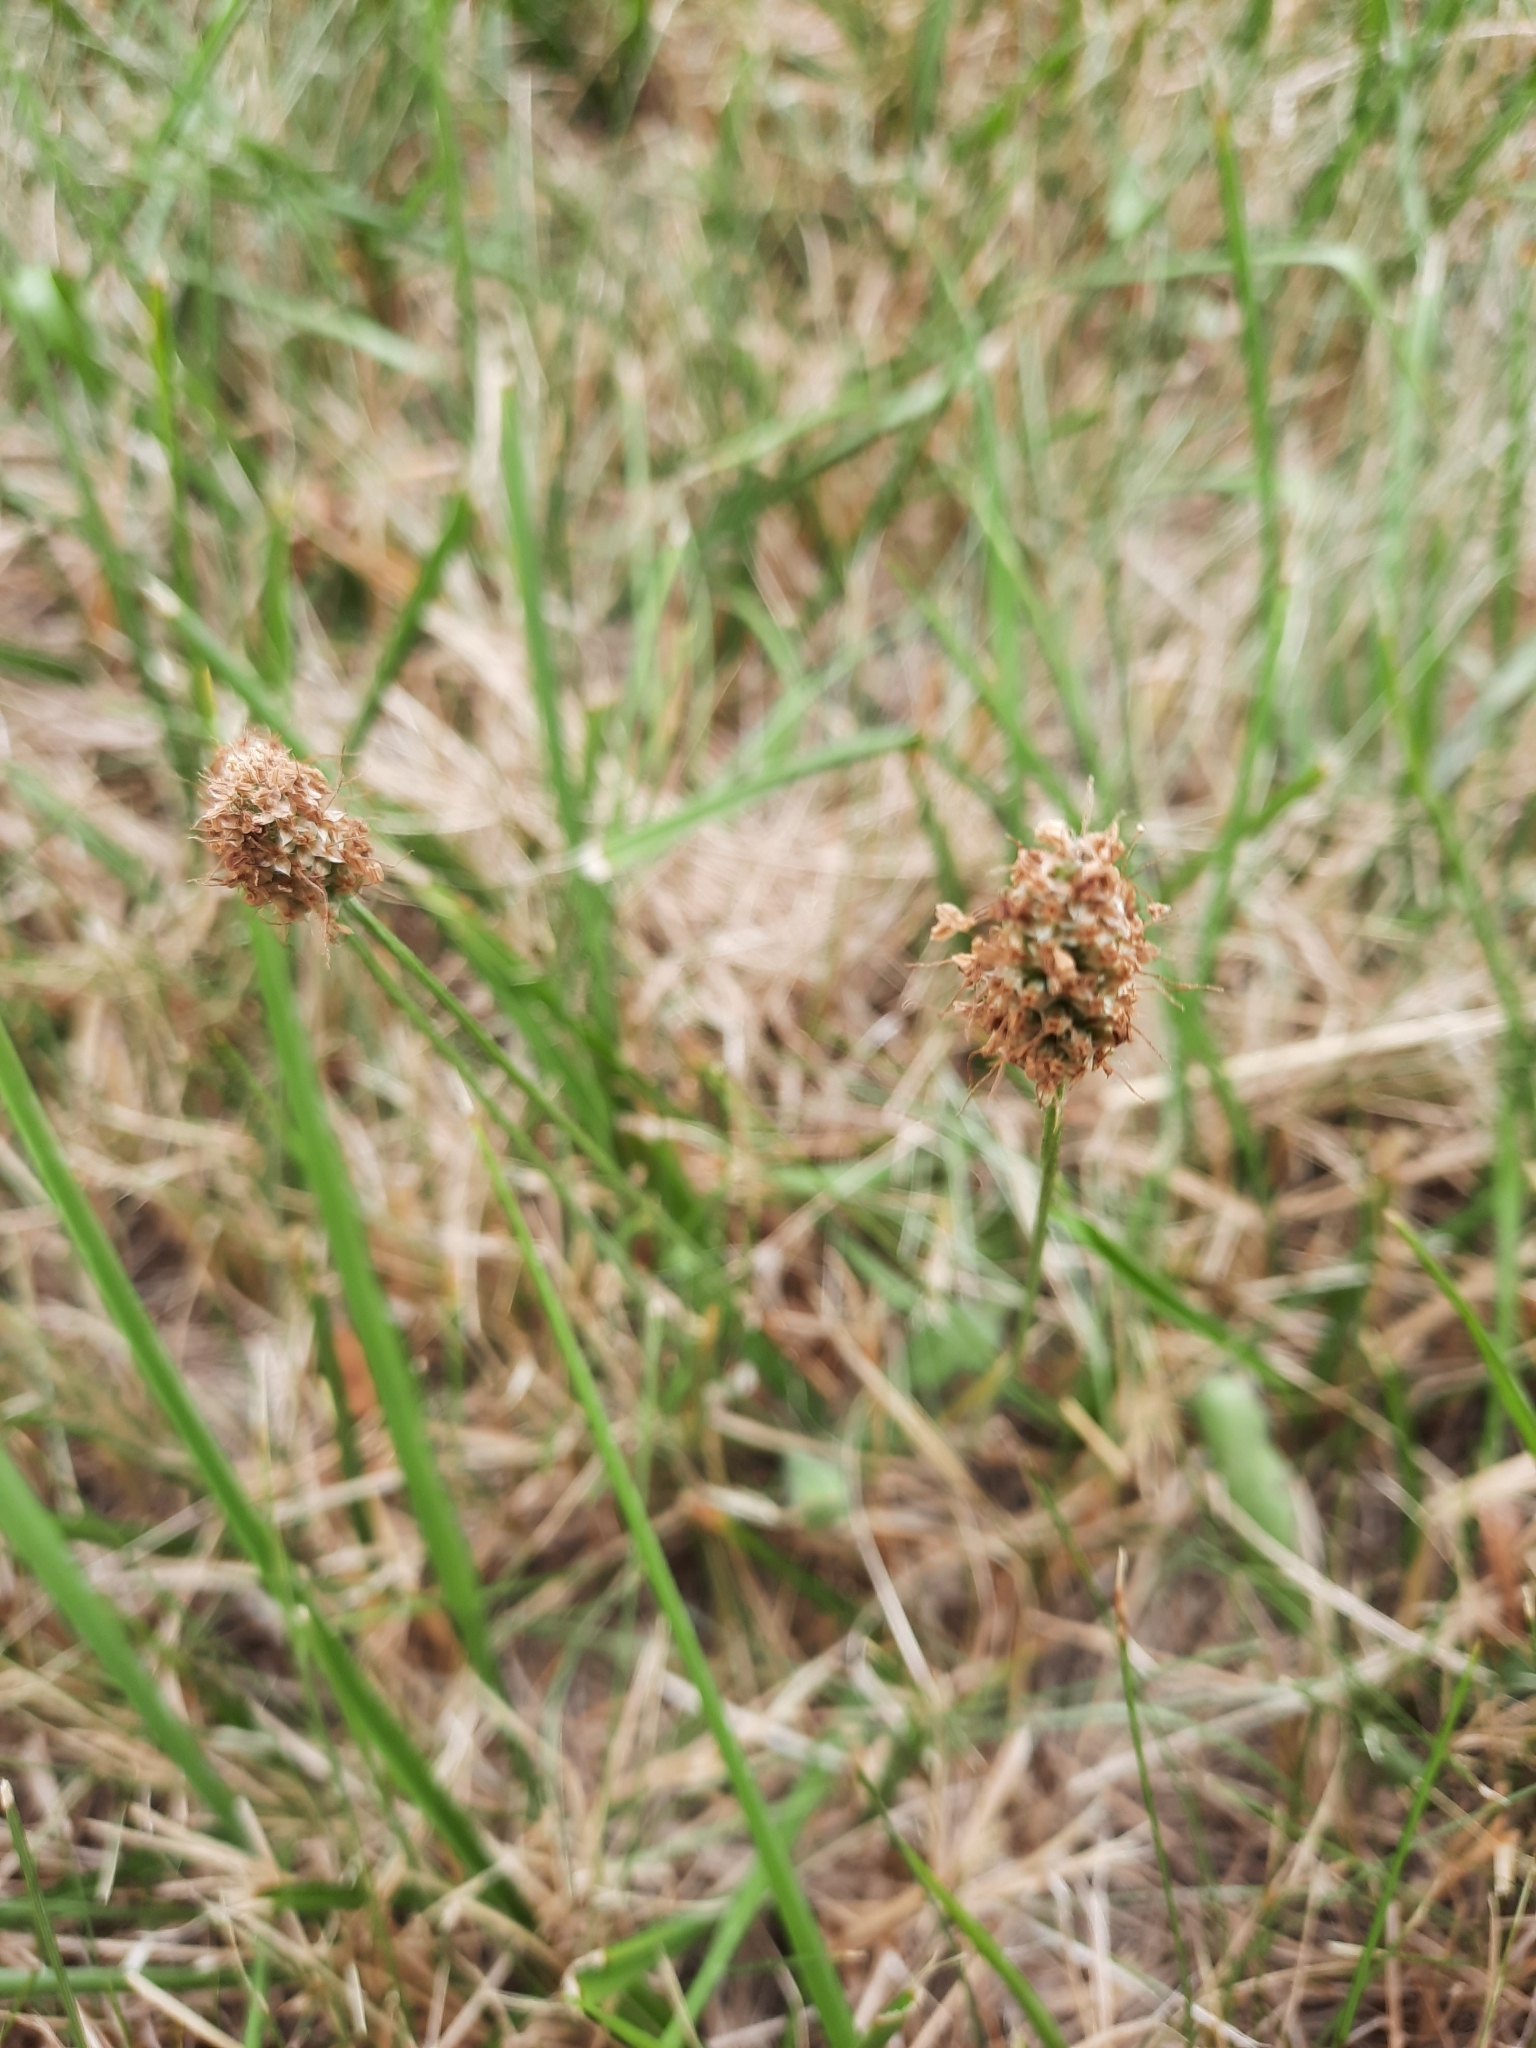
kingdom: Plantae
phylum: Tracheophyta
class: Magnoliopsida
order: Lamiales
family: Plantaginaceae
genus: Plantago
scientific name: Plantago lanceolata
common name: Ribwort plantain
